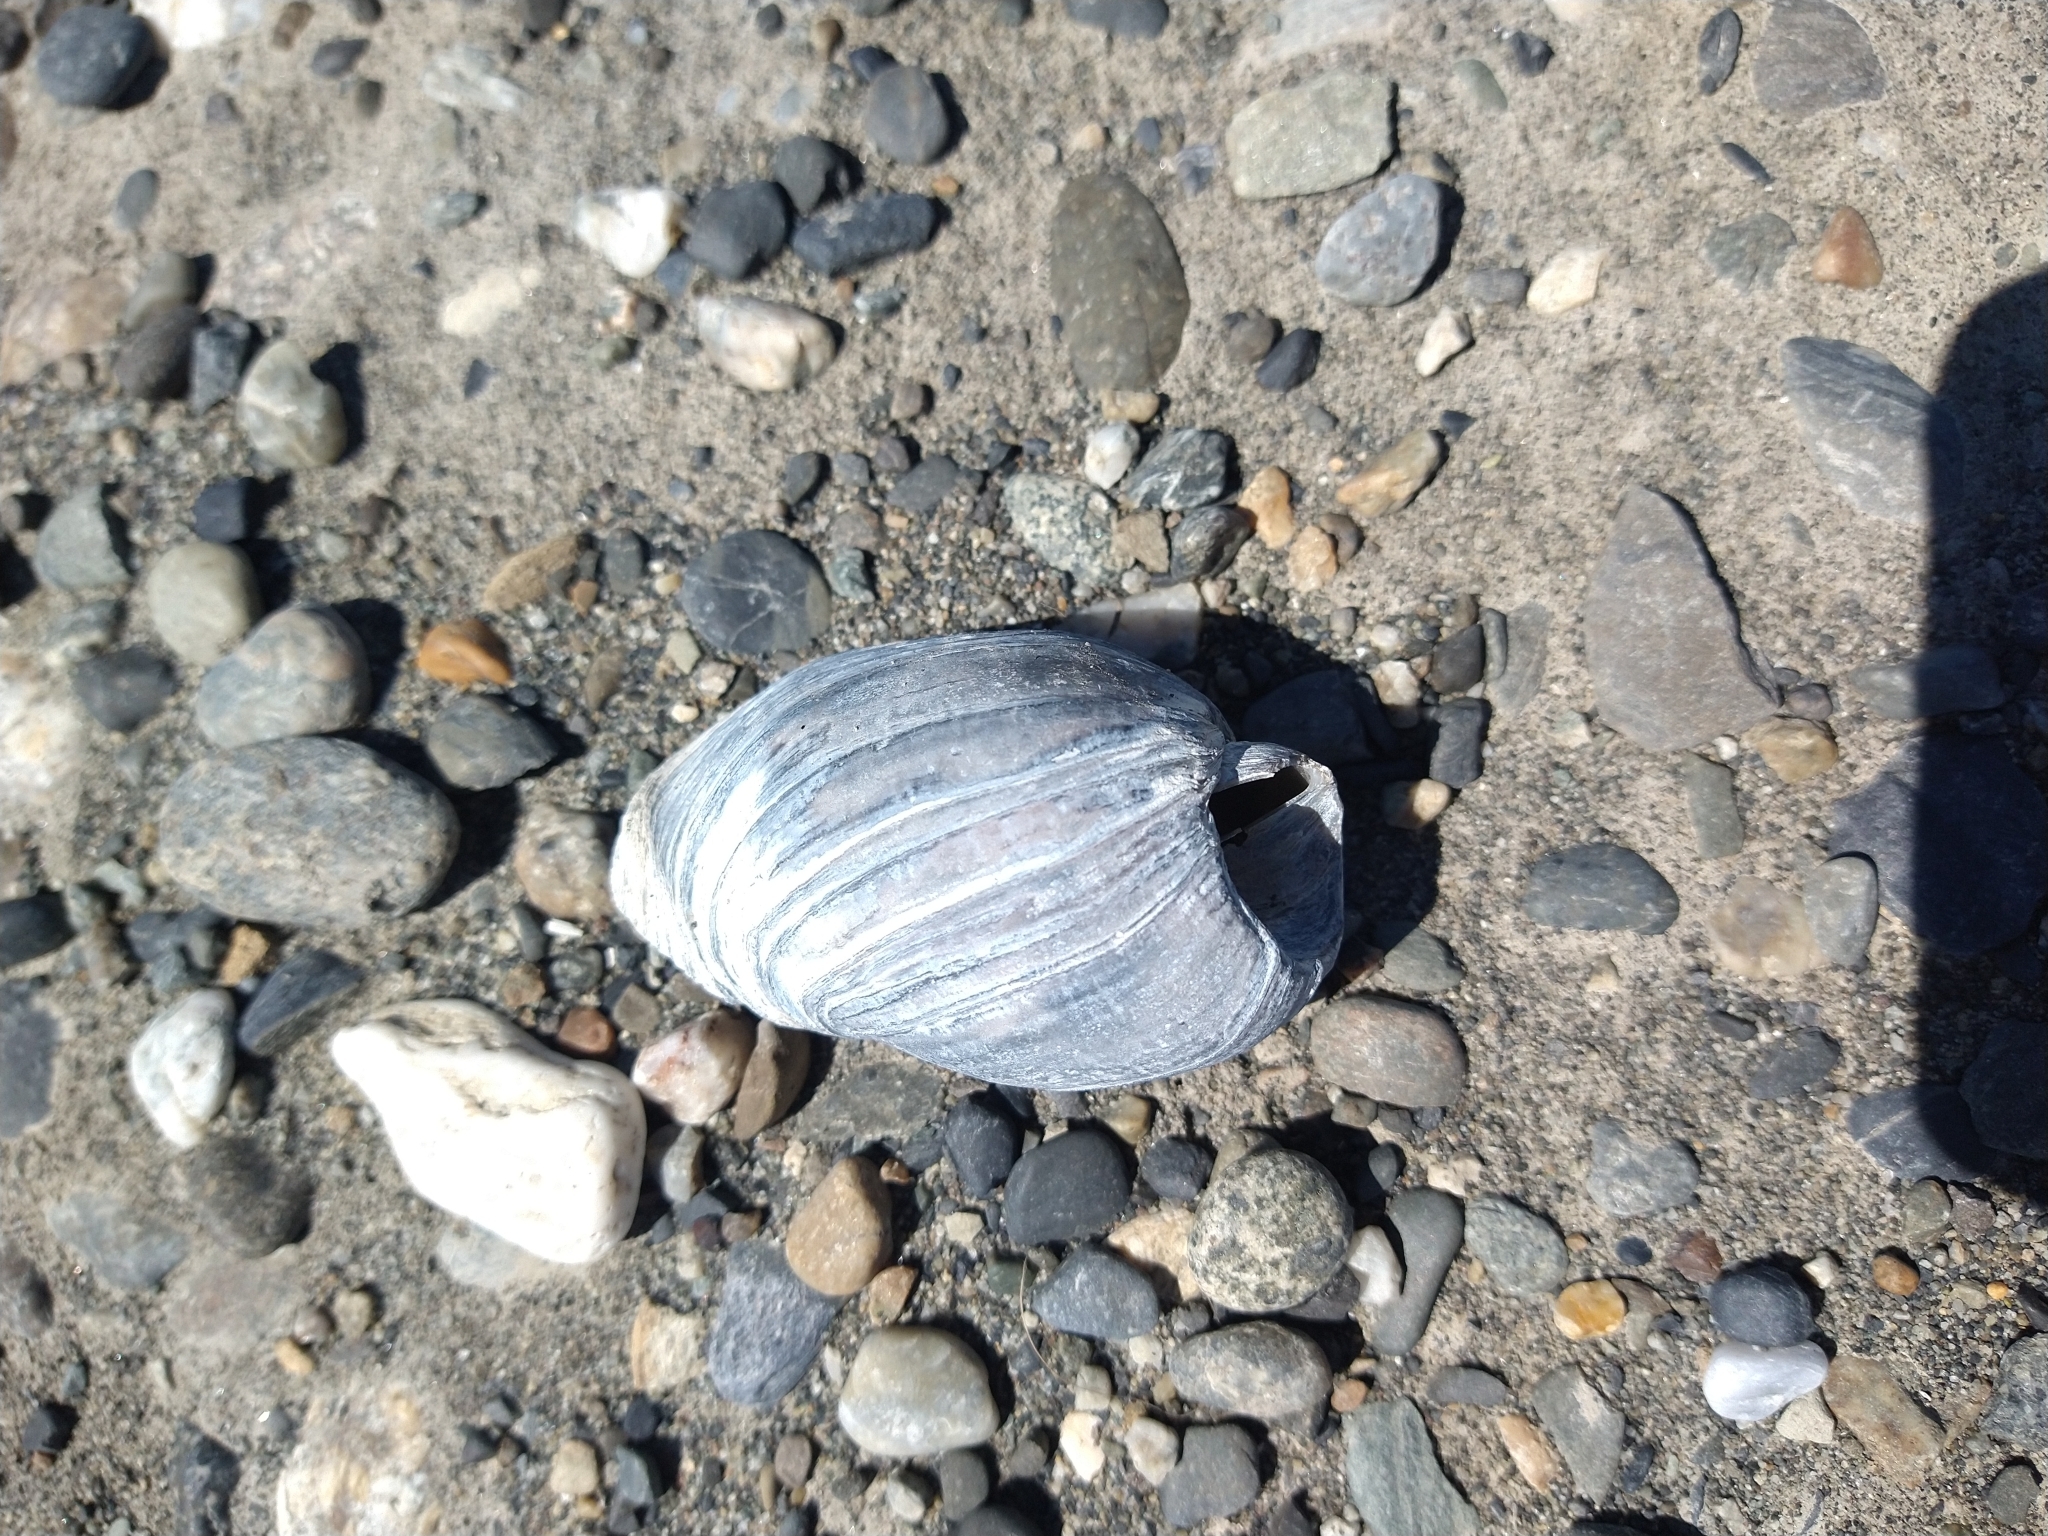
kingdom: Animalia
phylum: Mollusca
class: Gastropoda
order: Neogastropoda
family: Volutidae
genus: Pachycymbiola
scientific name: Pachycymbiola ferussacii
